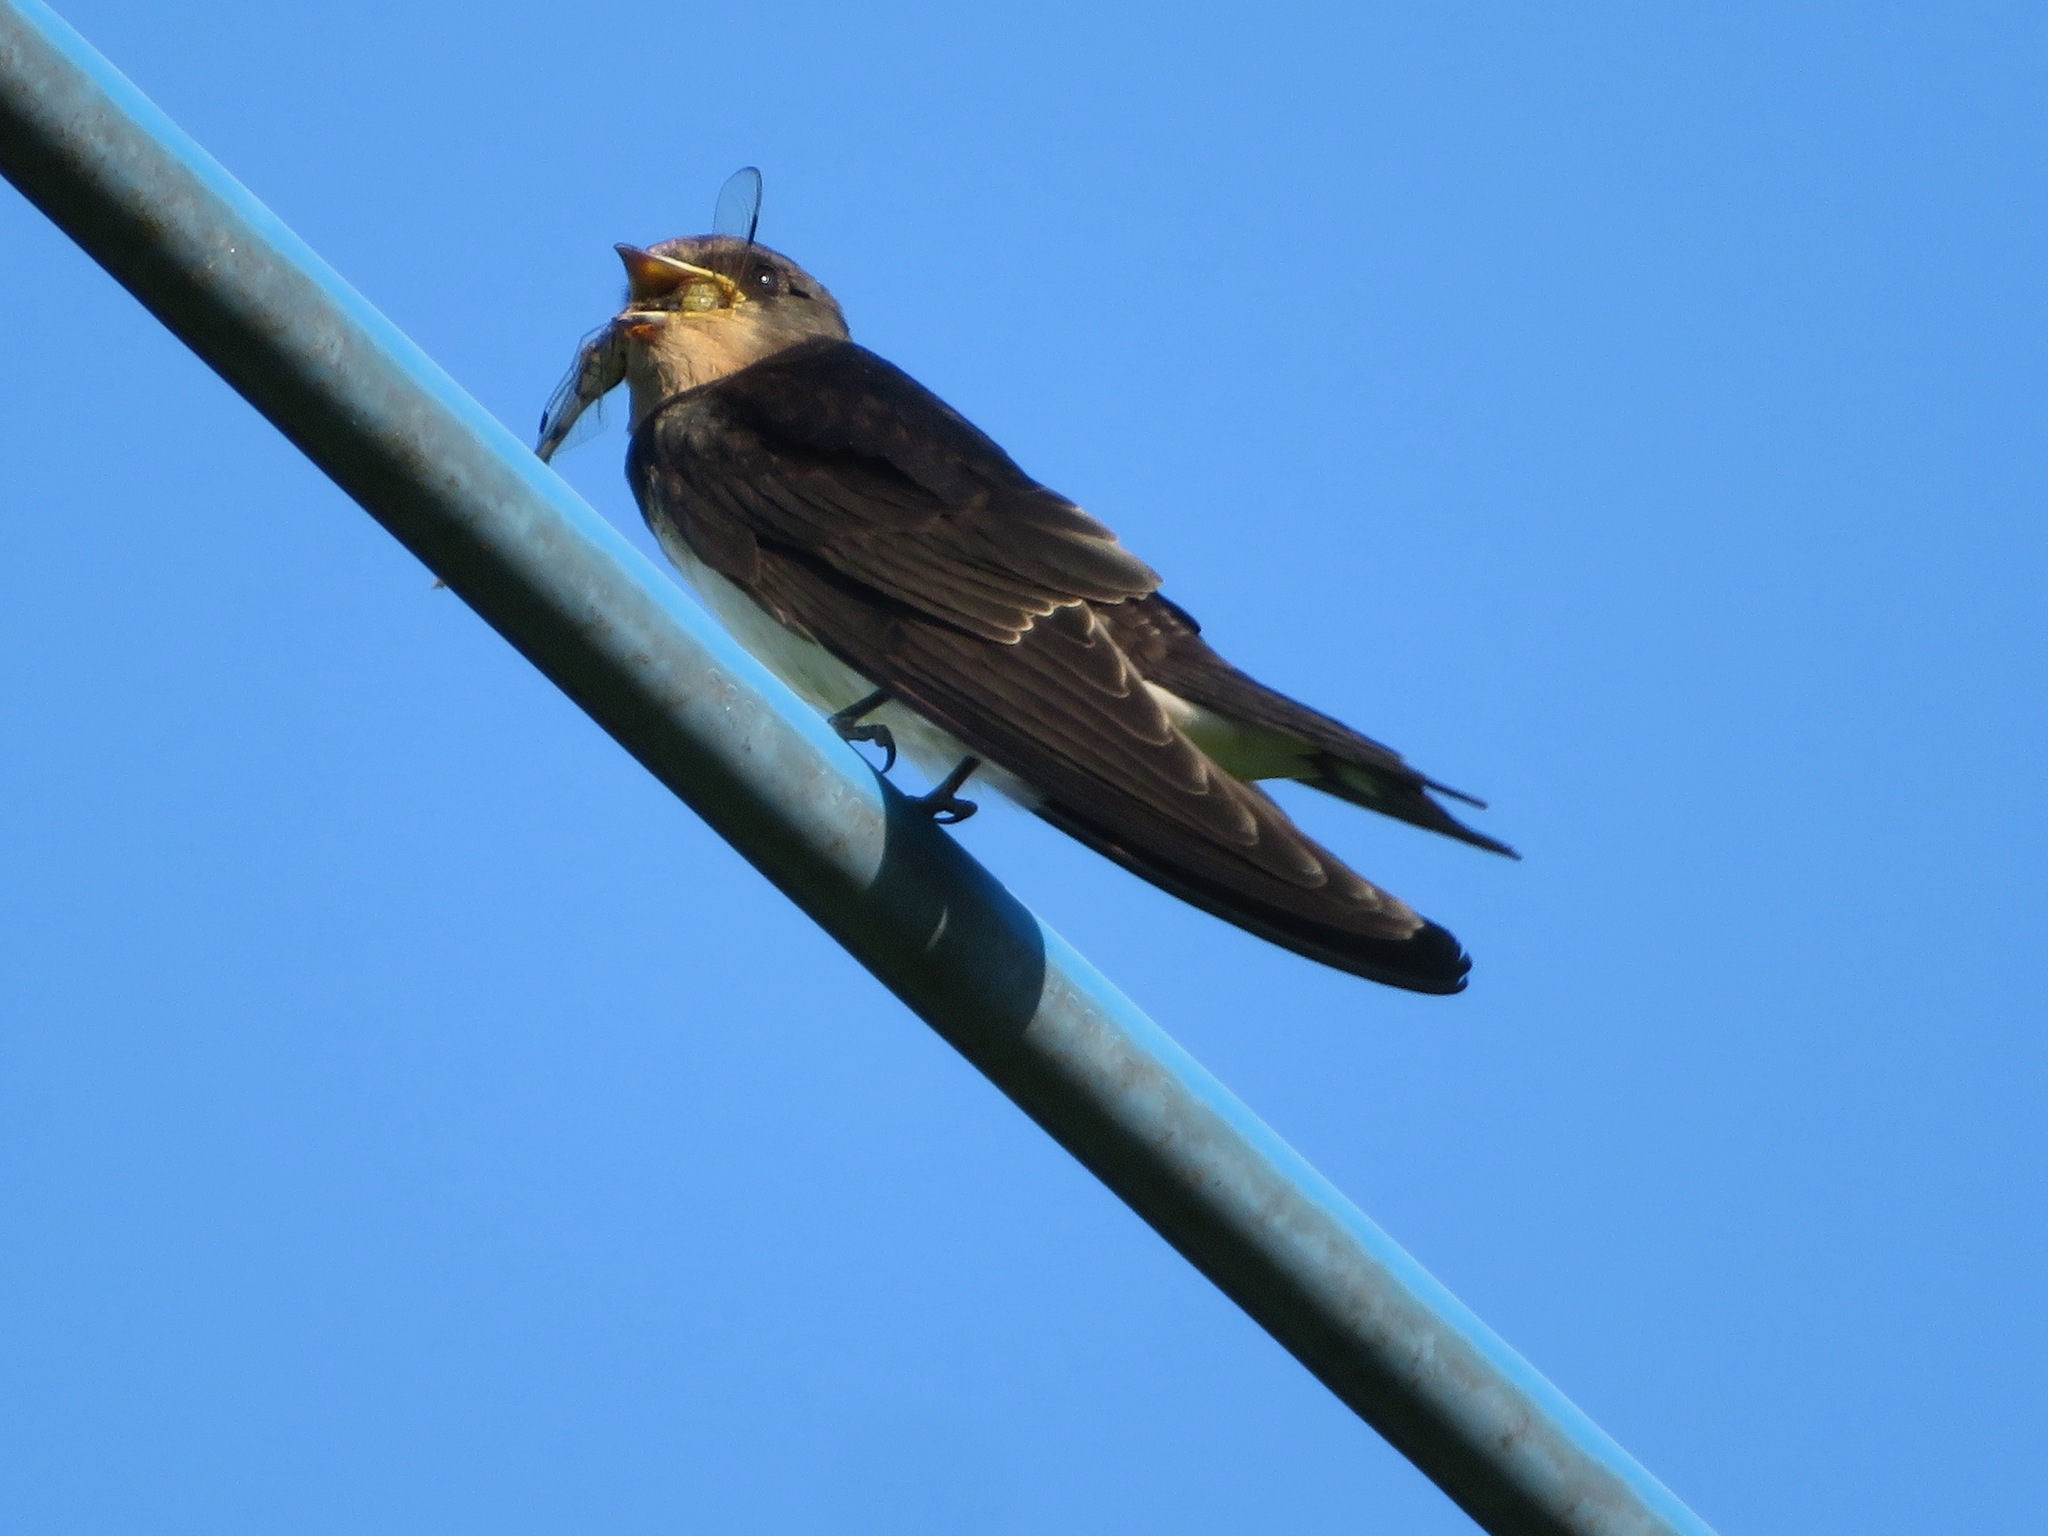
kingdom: Animalia
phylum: Chordata
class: Aves
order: Passeriformes
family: Hirundinidae
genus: Hirundo
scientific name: Hirundo rustica
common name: Barn swallow
